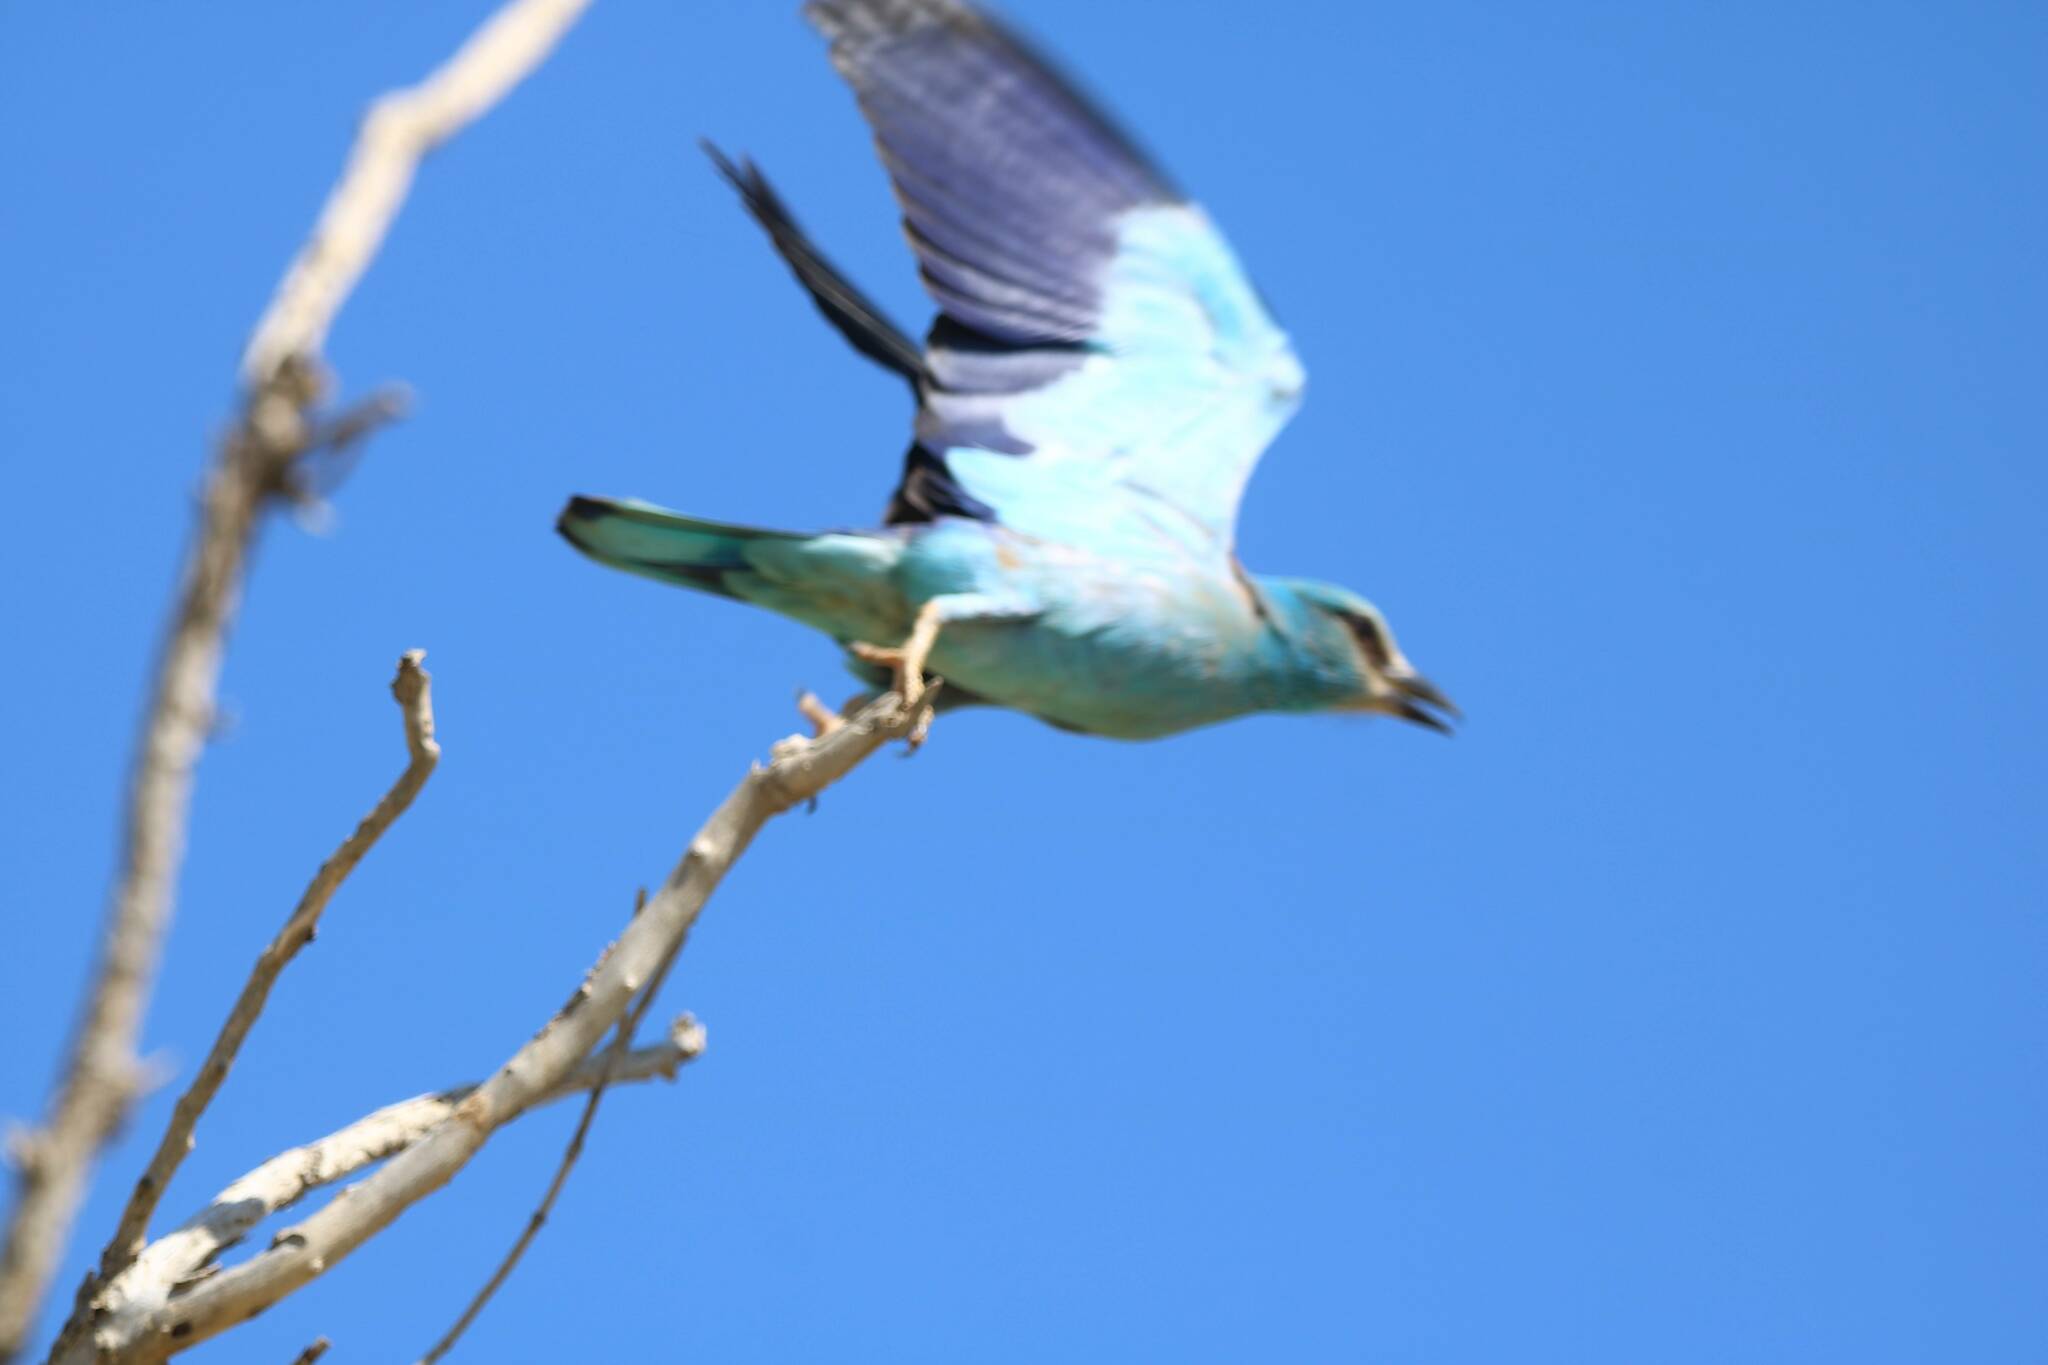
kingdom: Animalia
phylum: Chordata
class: Aves
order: Coraciiformes
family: Coraciidae
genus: Coracias
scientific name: Coracias garrulus
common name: European roller
